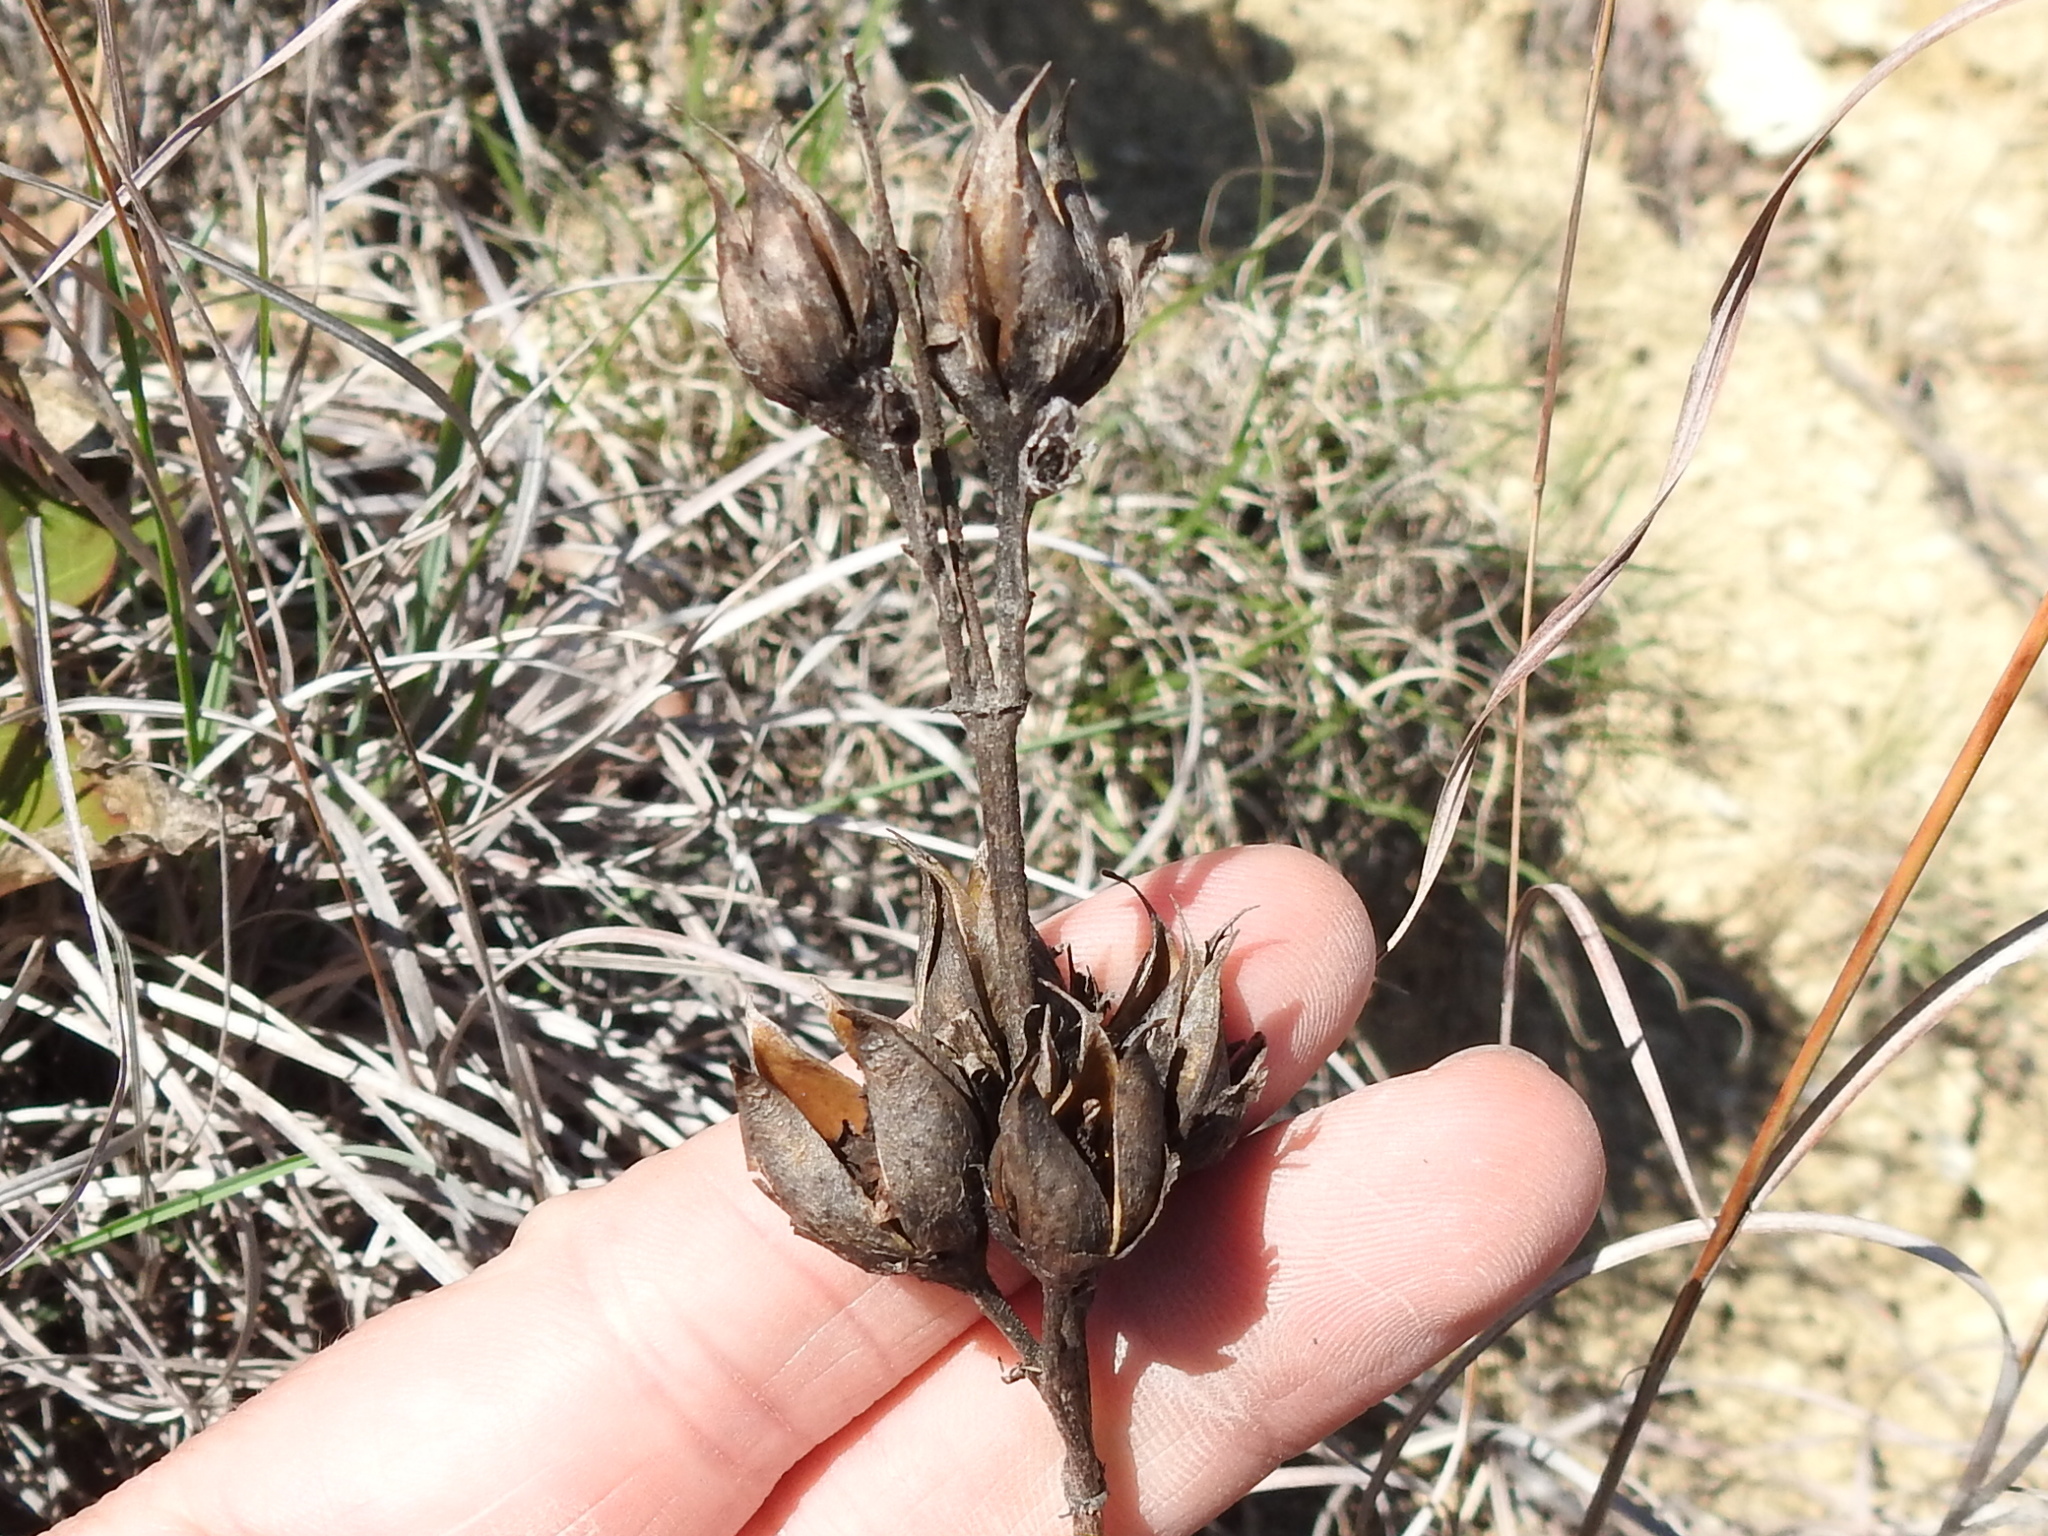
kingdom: Plantae
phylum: Tracheophyta
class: Magnoliopsida
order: Lamiales
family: Plantaginaceae
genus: Penstemon
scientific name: Penstemon cobaea
